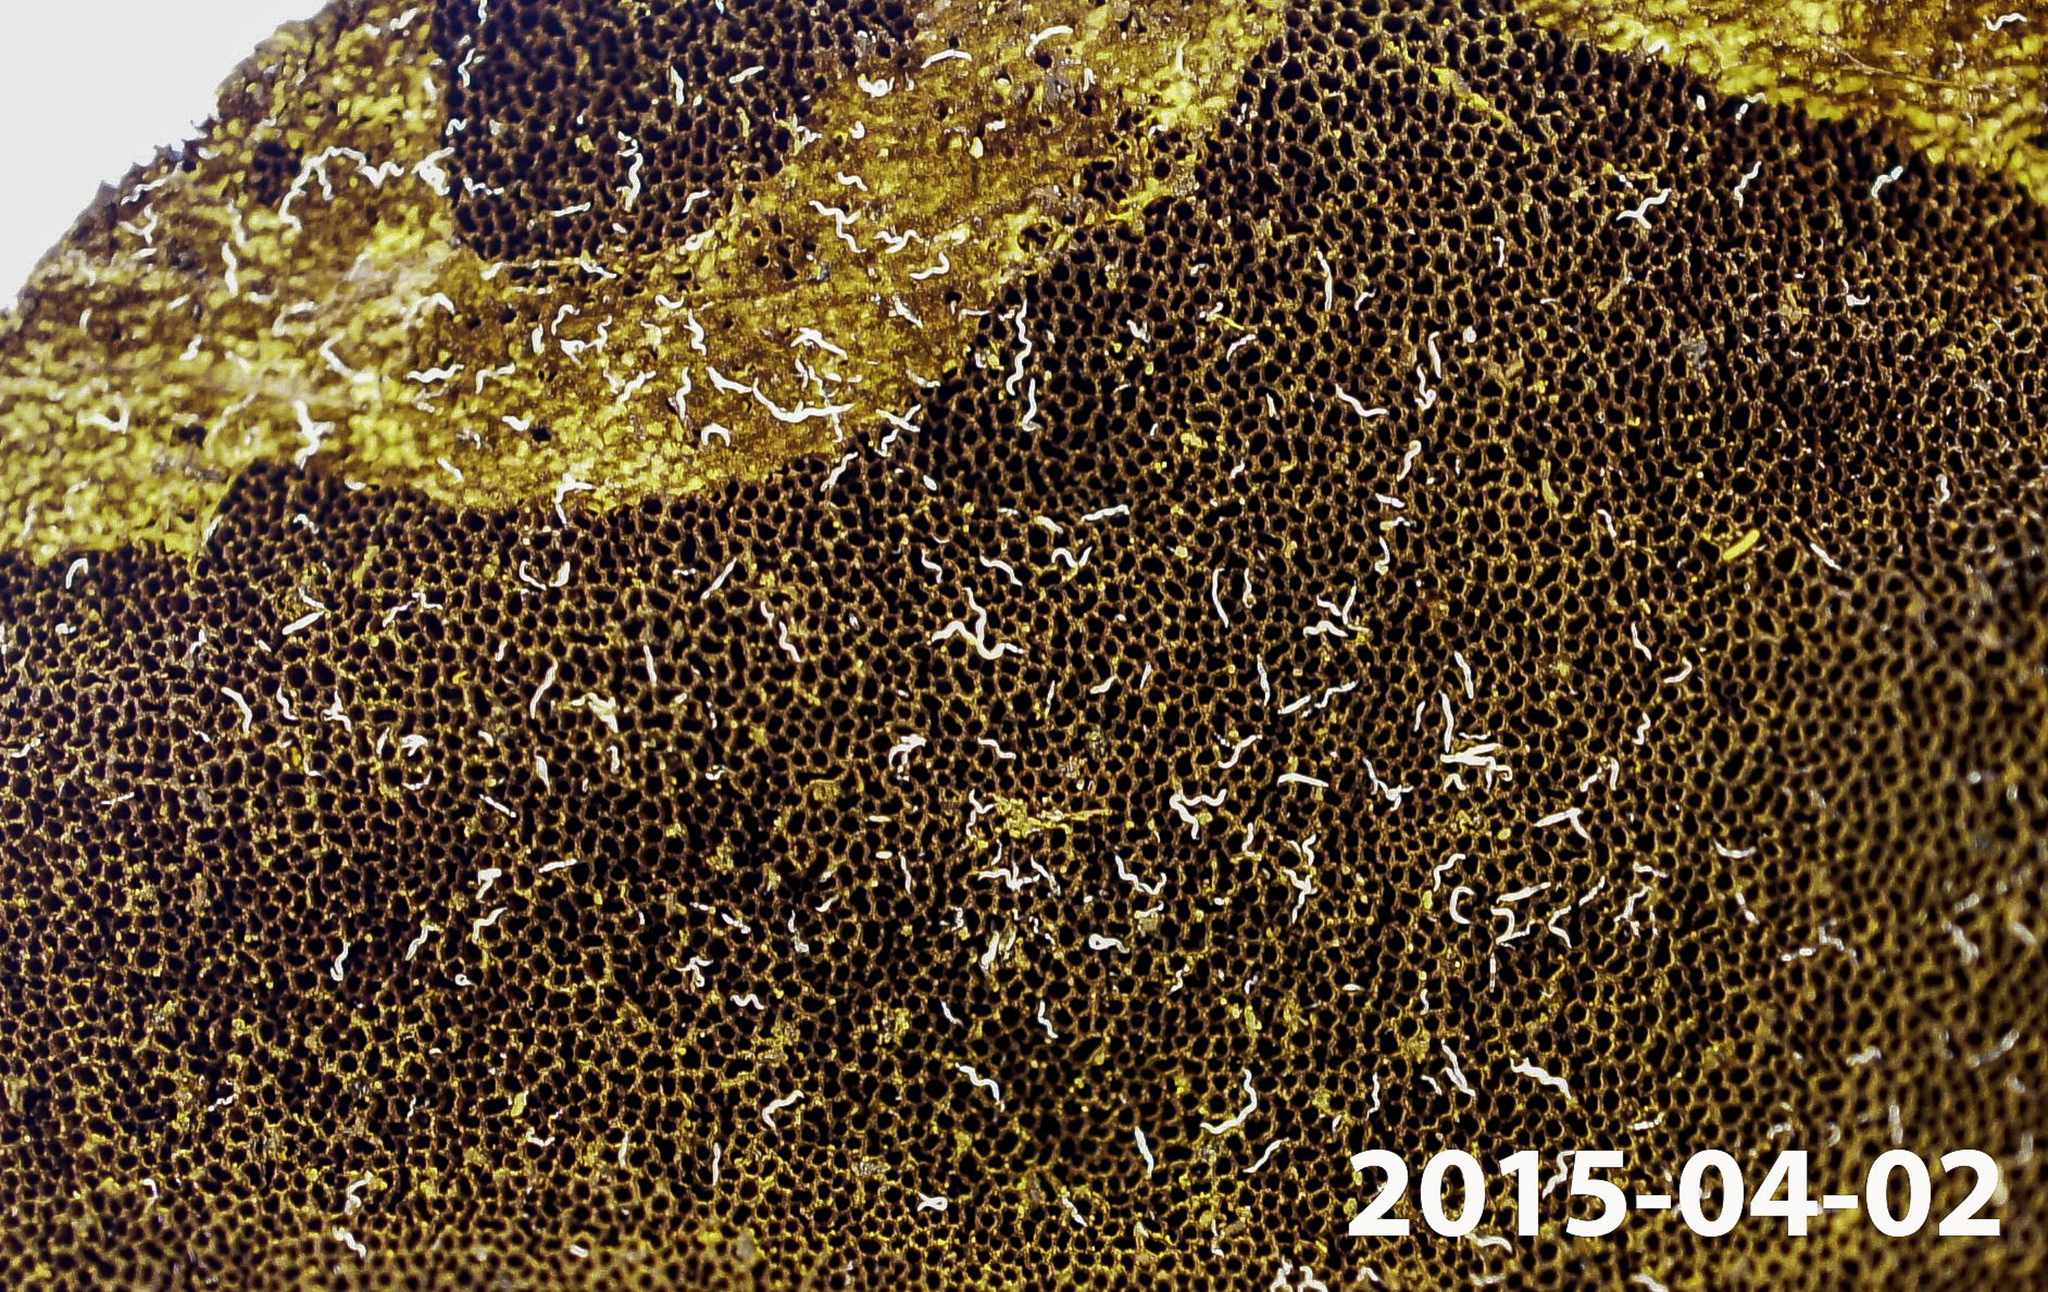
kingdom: Fungi
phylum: Basidiomycota
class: Agaricomycetes
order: Hymenochaetales
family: Hymenochaetaceae
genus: Xanthoporia
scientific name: Xanthoporia andersonii
